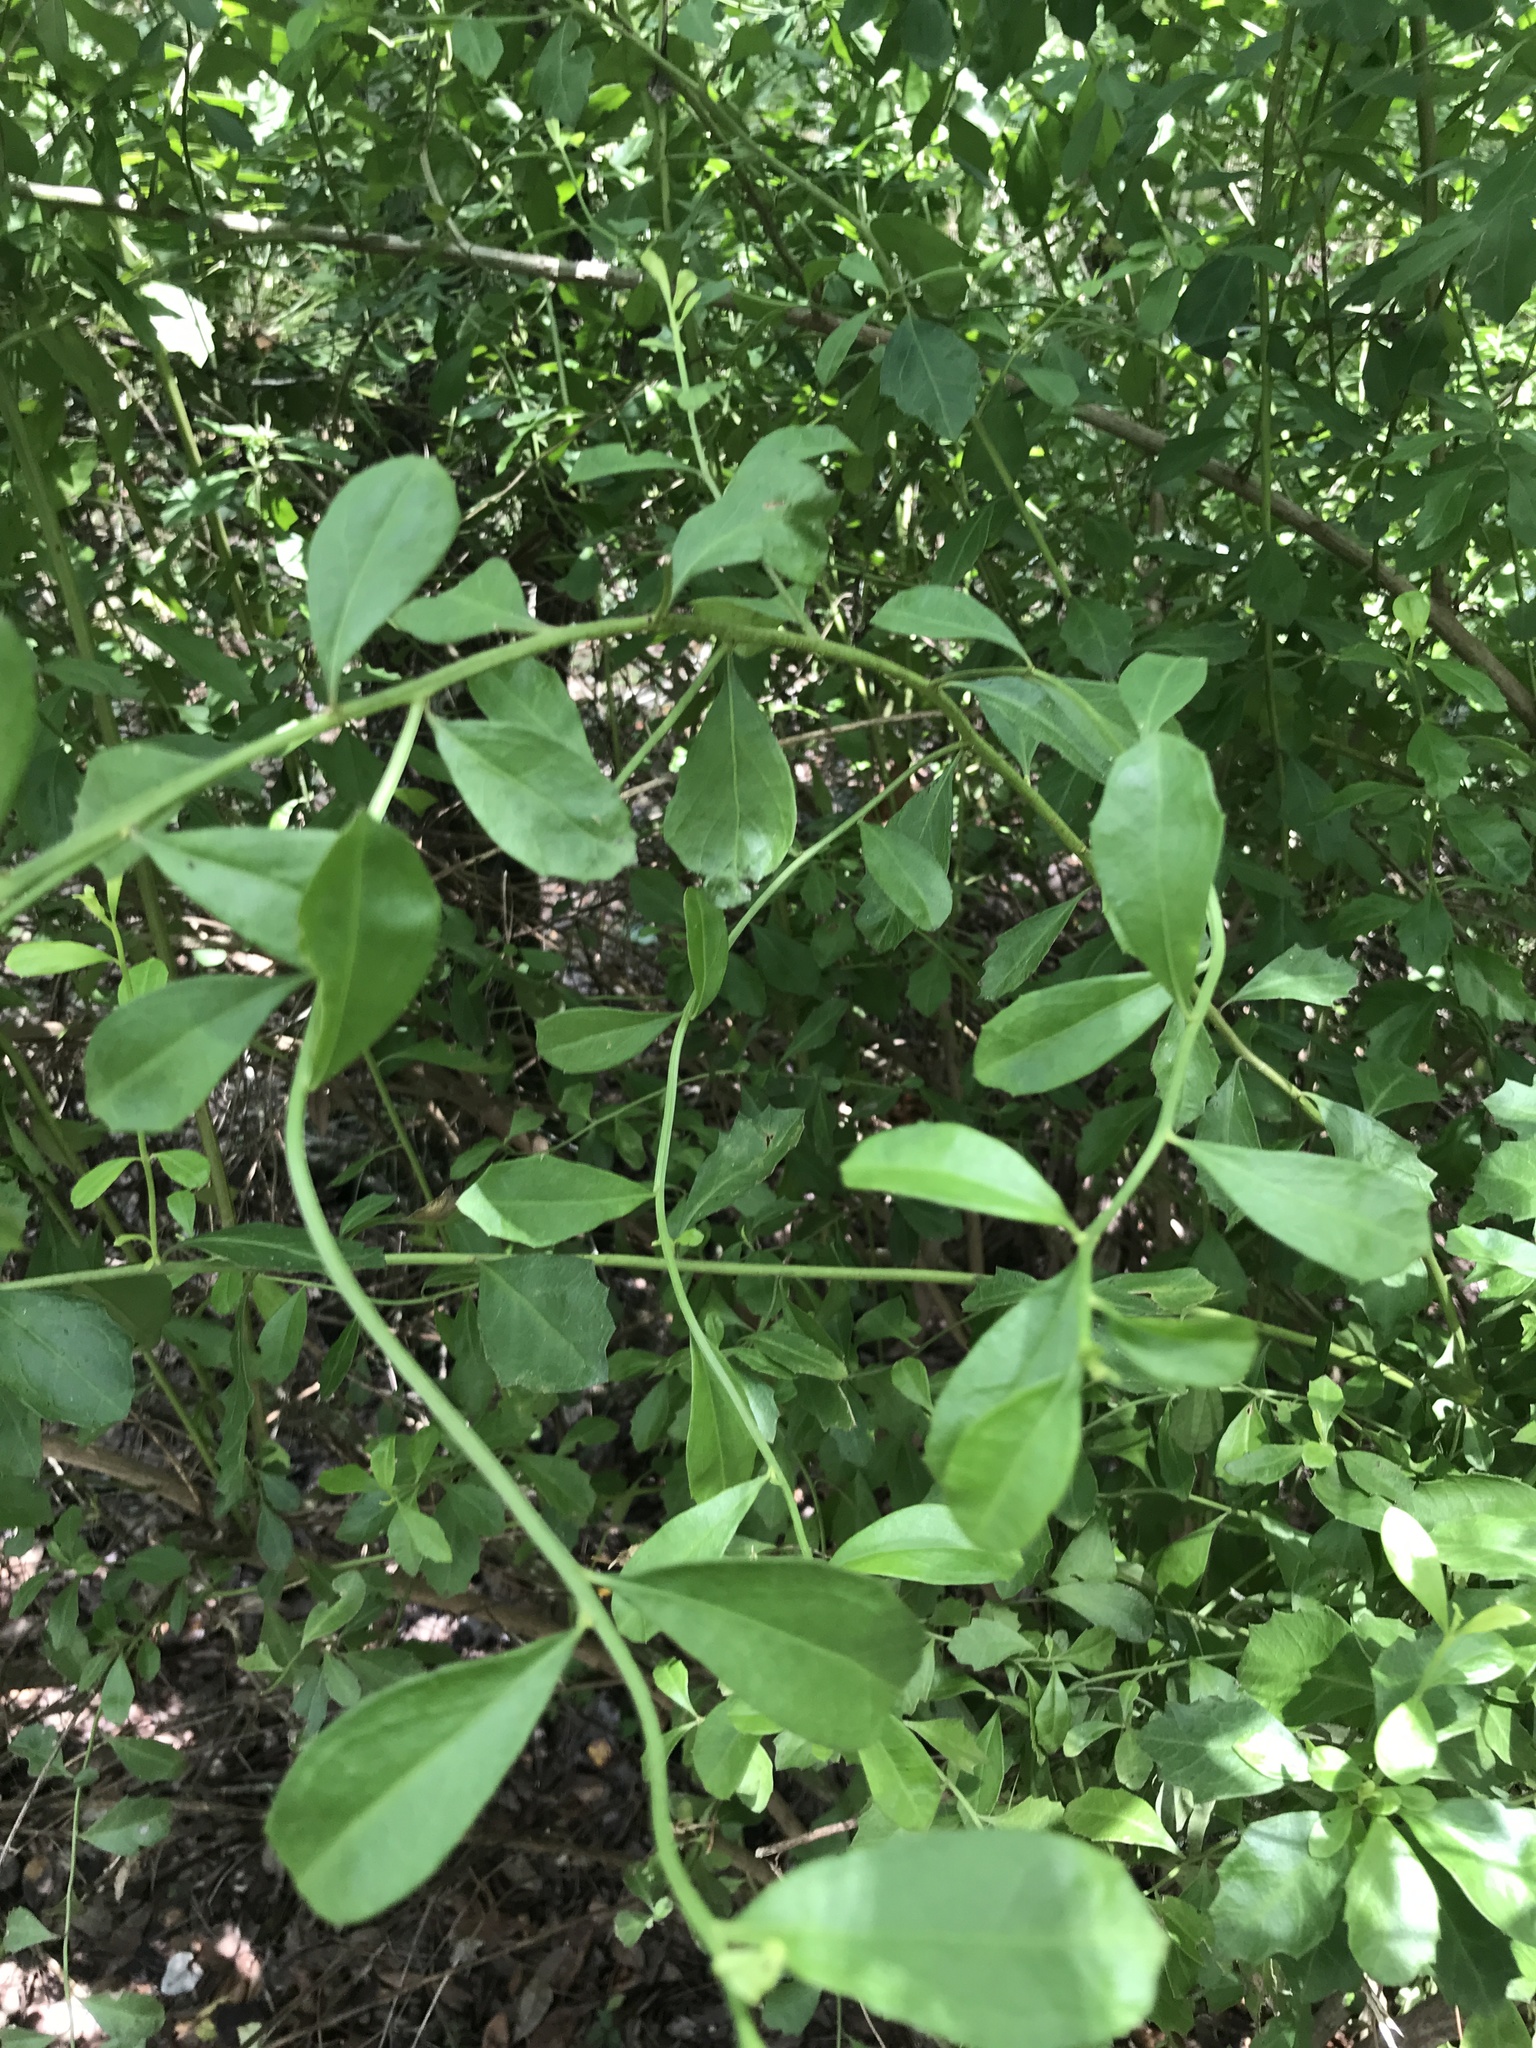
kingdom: Plantae
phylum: Tracheophyta
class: Magnoliopsida
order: Asterales
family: Asteraceae
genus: Baccharis
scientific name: Baccharis halimifolia
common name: Eastern baccharis
